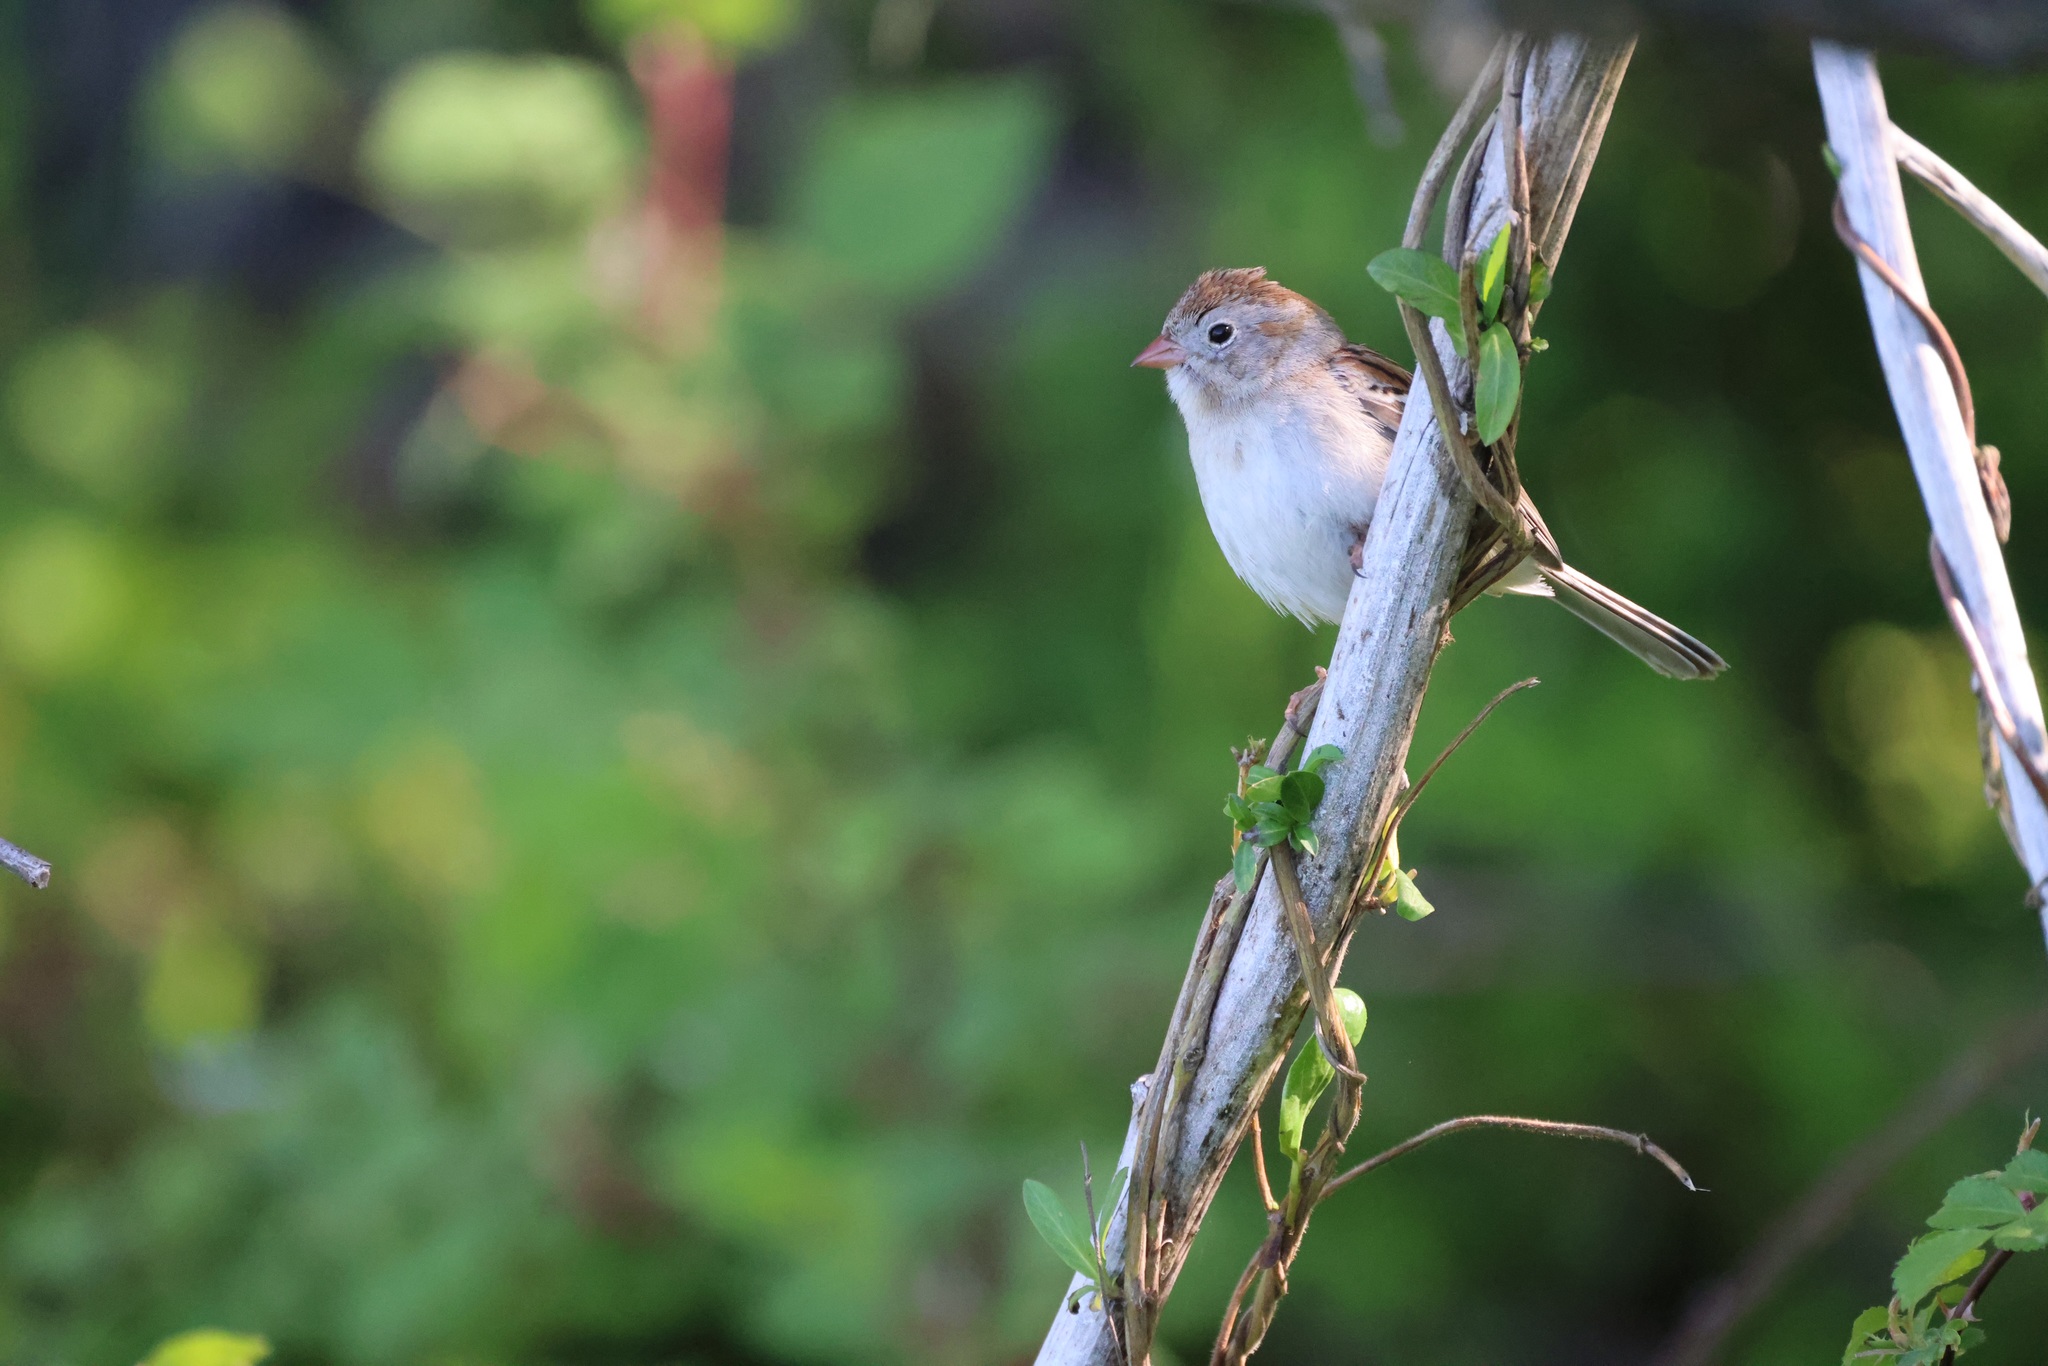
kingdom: Animalia
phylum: Chordata
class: Aves
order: Passeriformes
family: Passerellidae
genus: Spizella
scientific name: Spizella pusilla
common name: Field sparrow
